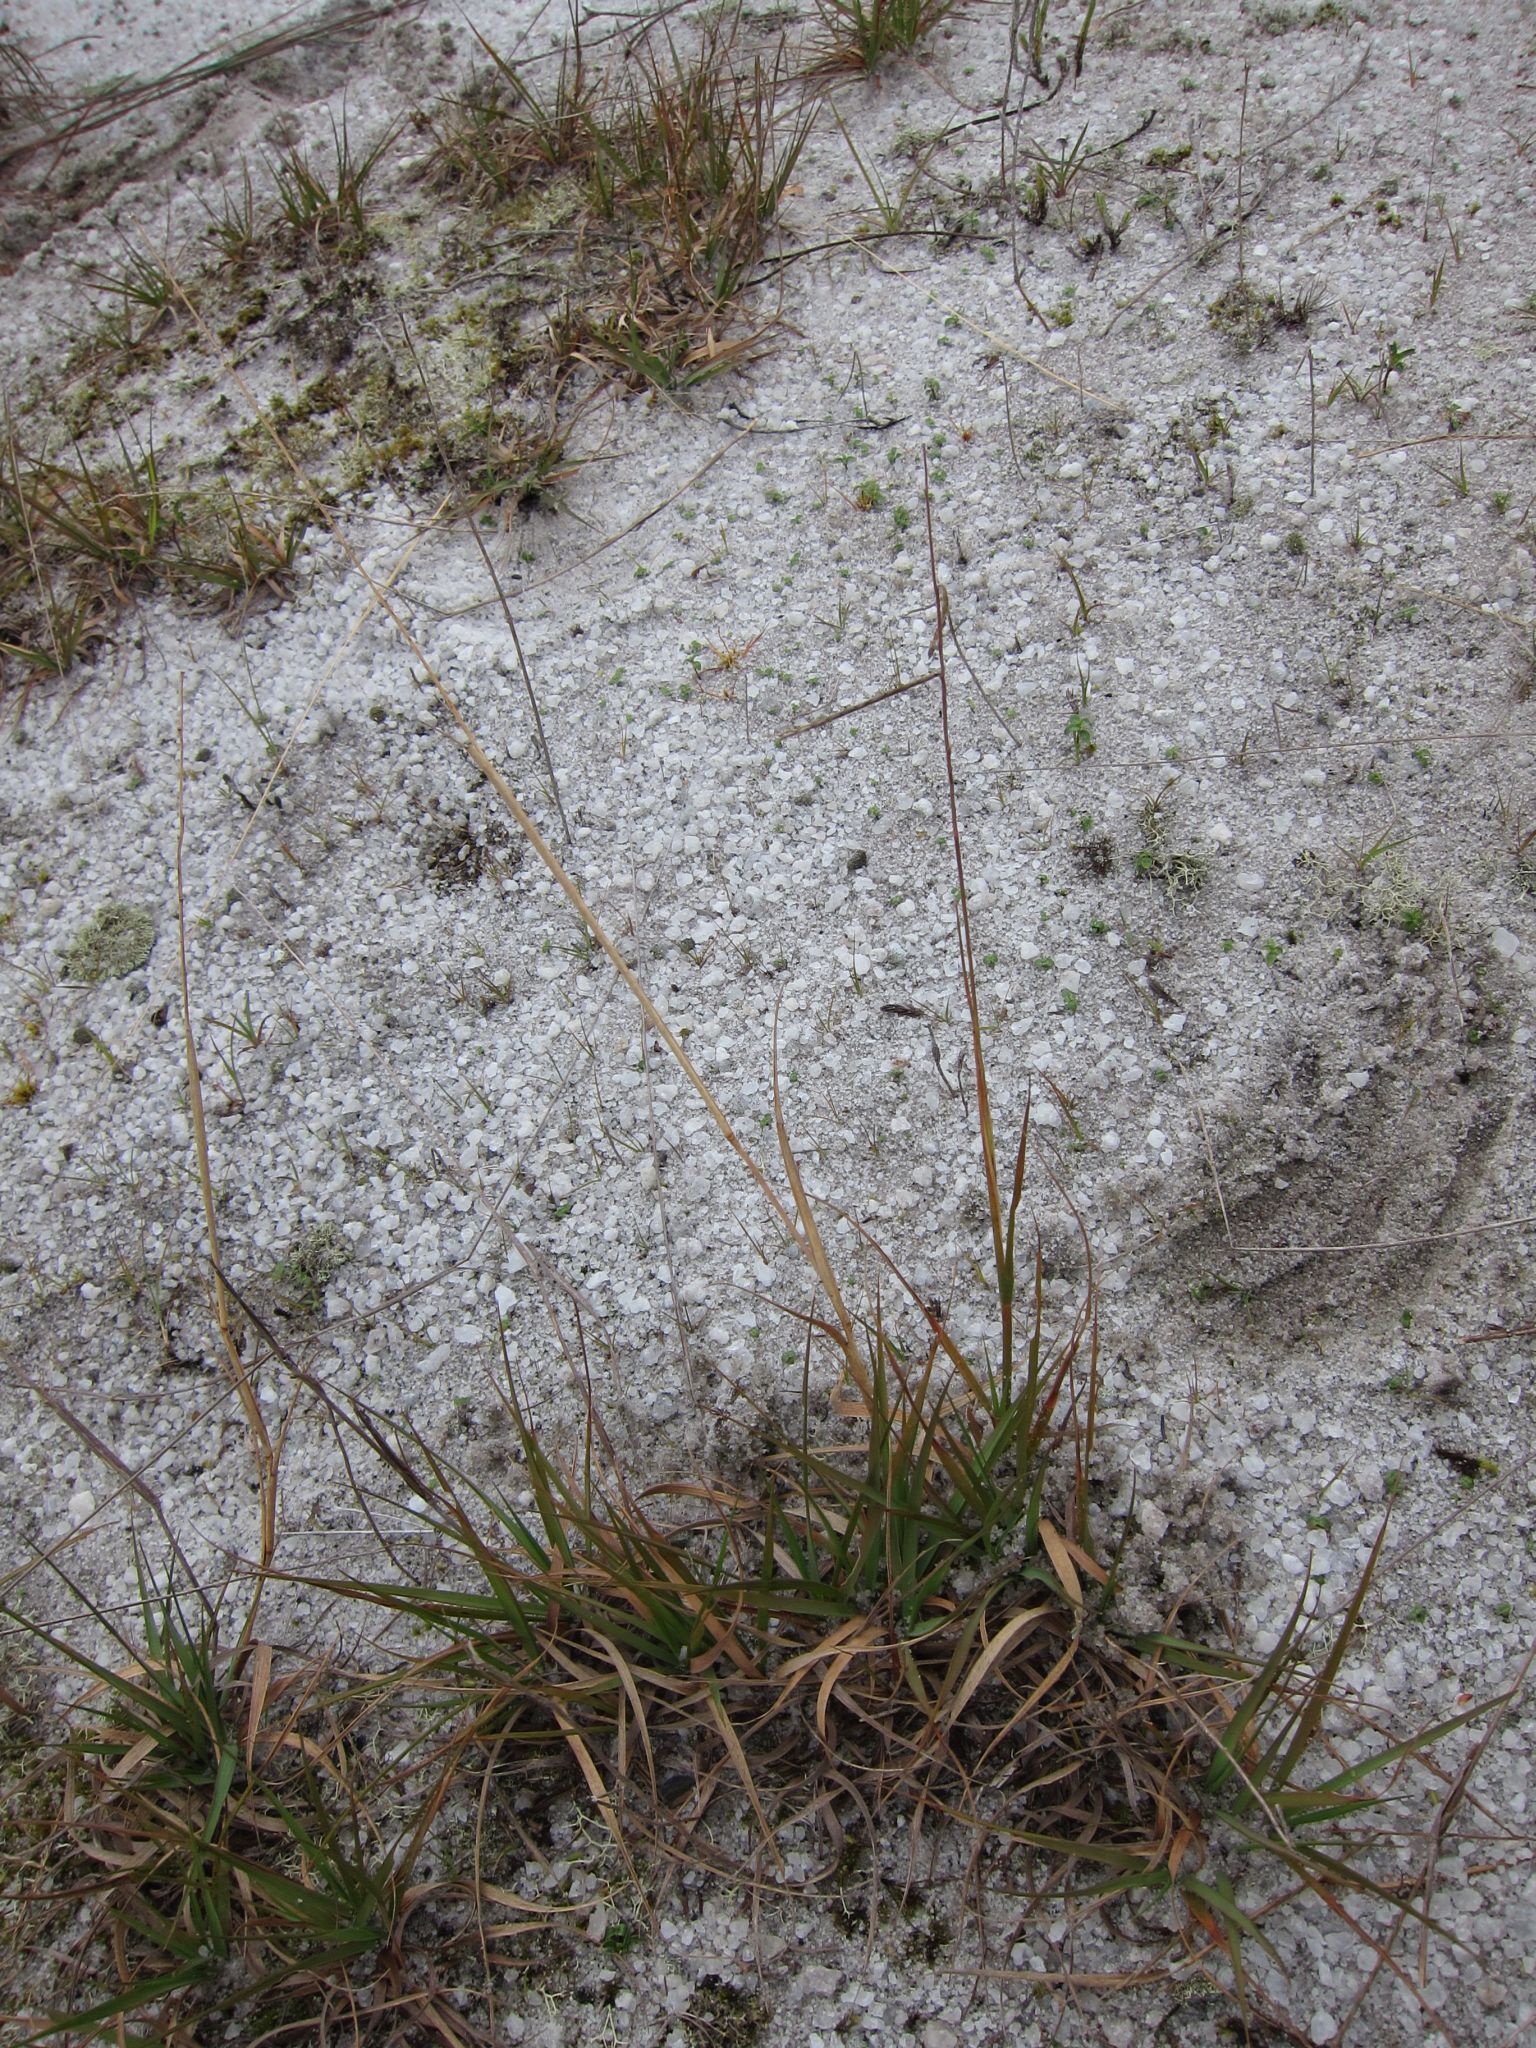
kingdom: Plantae
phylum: Tracheophyta
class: Liliopsida
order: Poales
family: Poaceae
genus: Craspedorhachis
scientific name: Craspedorhachis africana
